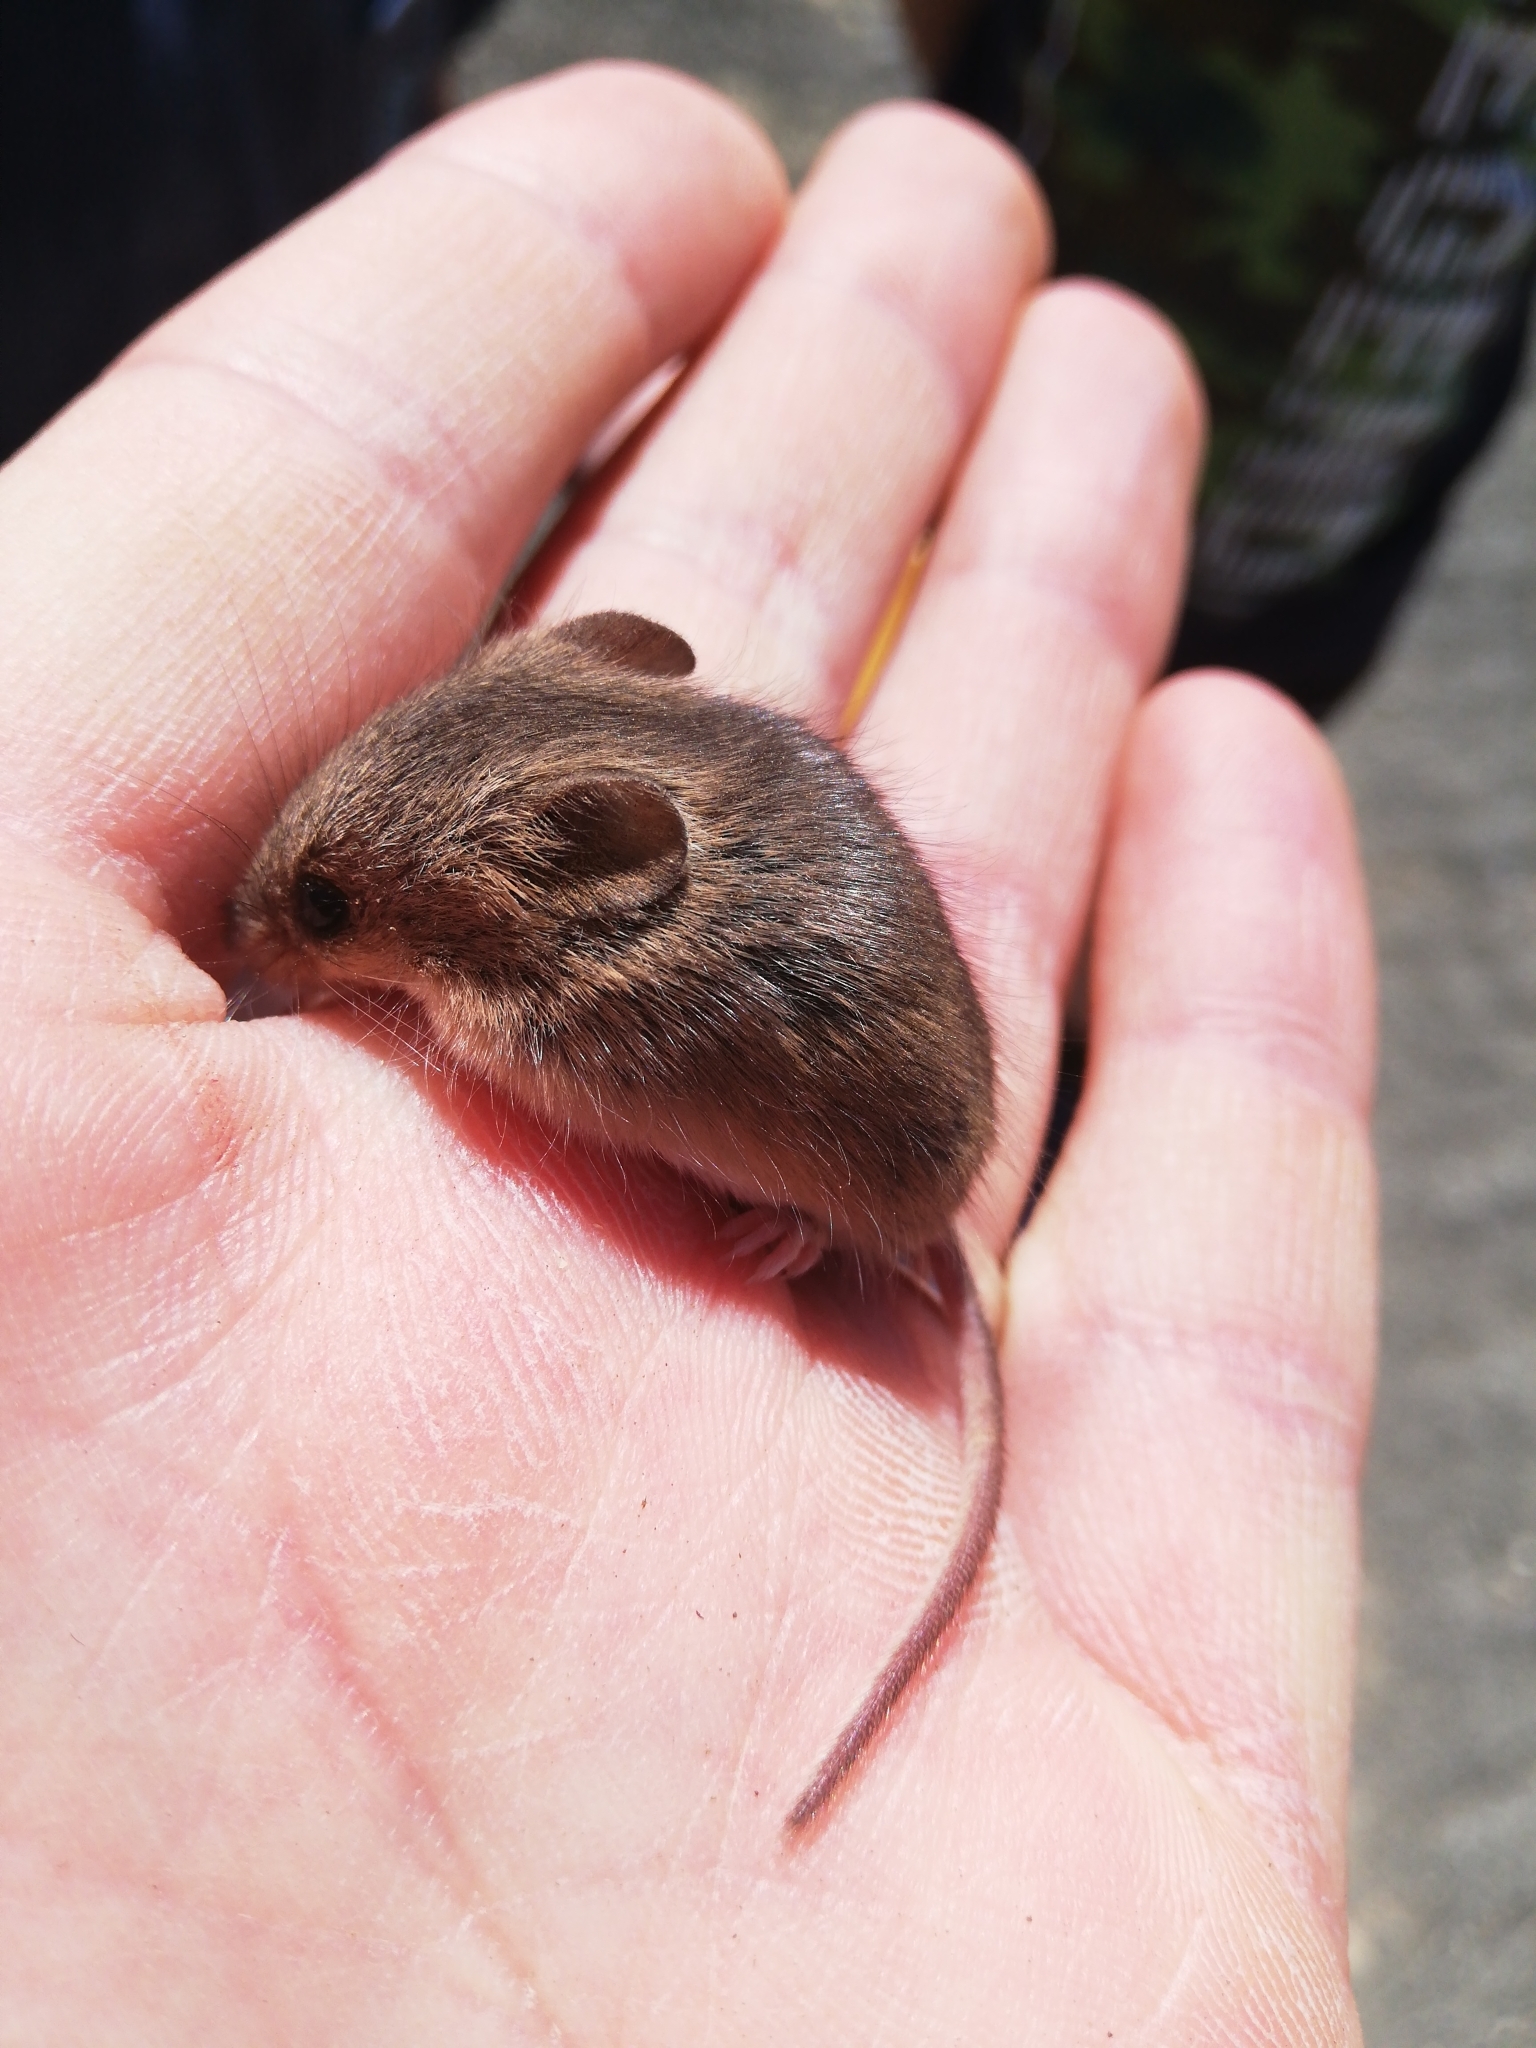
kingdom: Animalia
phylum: Chordata
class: Mammalia
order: Rodentia
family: Muridae
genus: Mus
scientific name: Mus musculus
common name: House mouse
